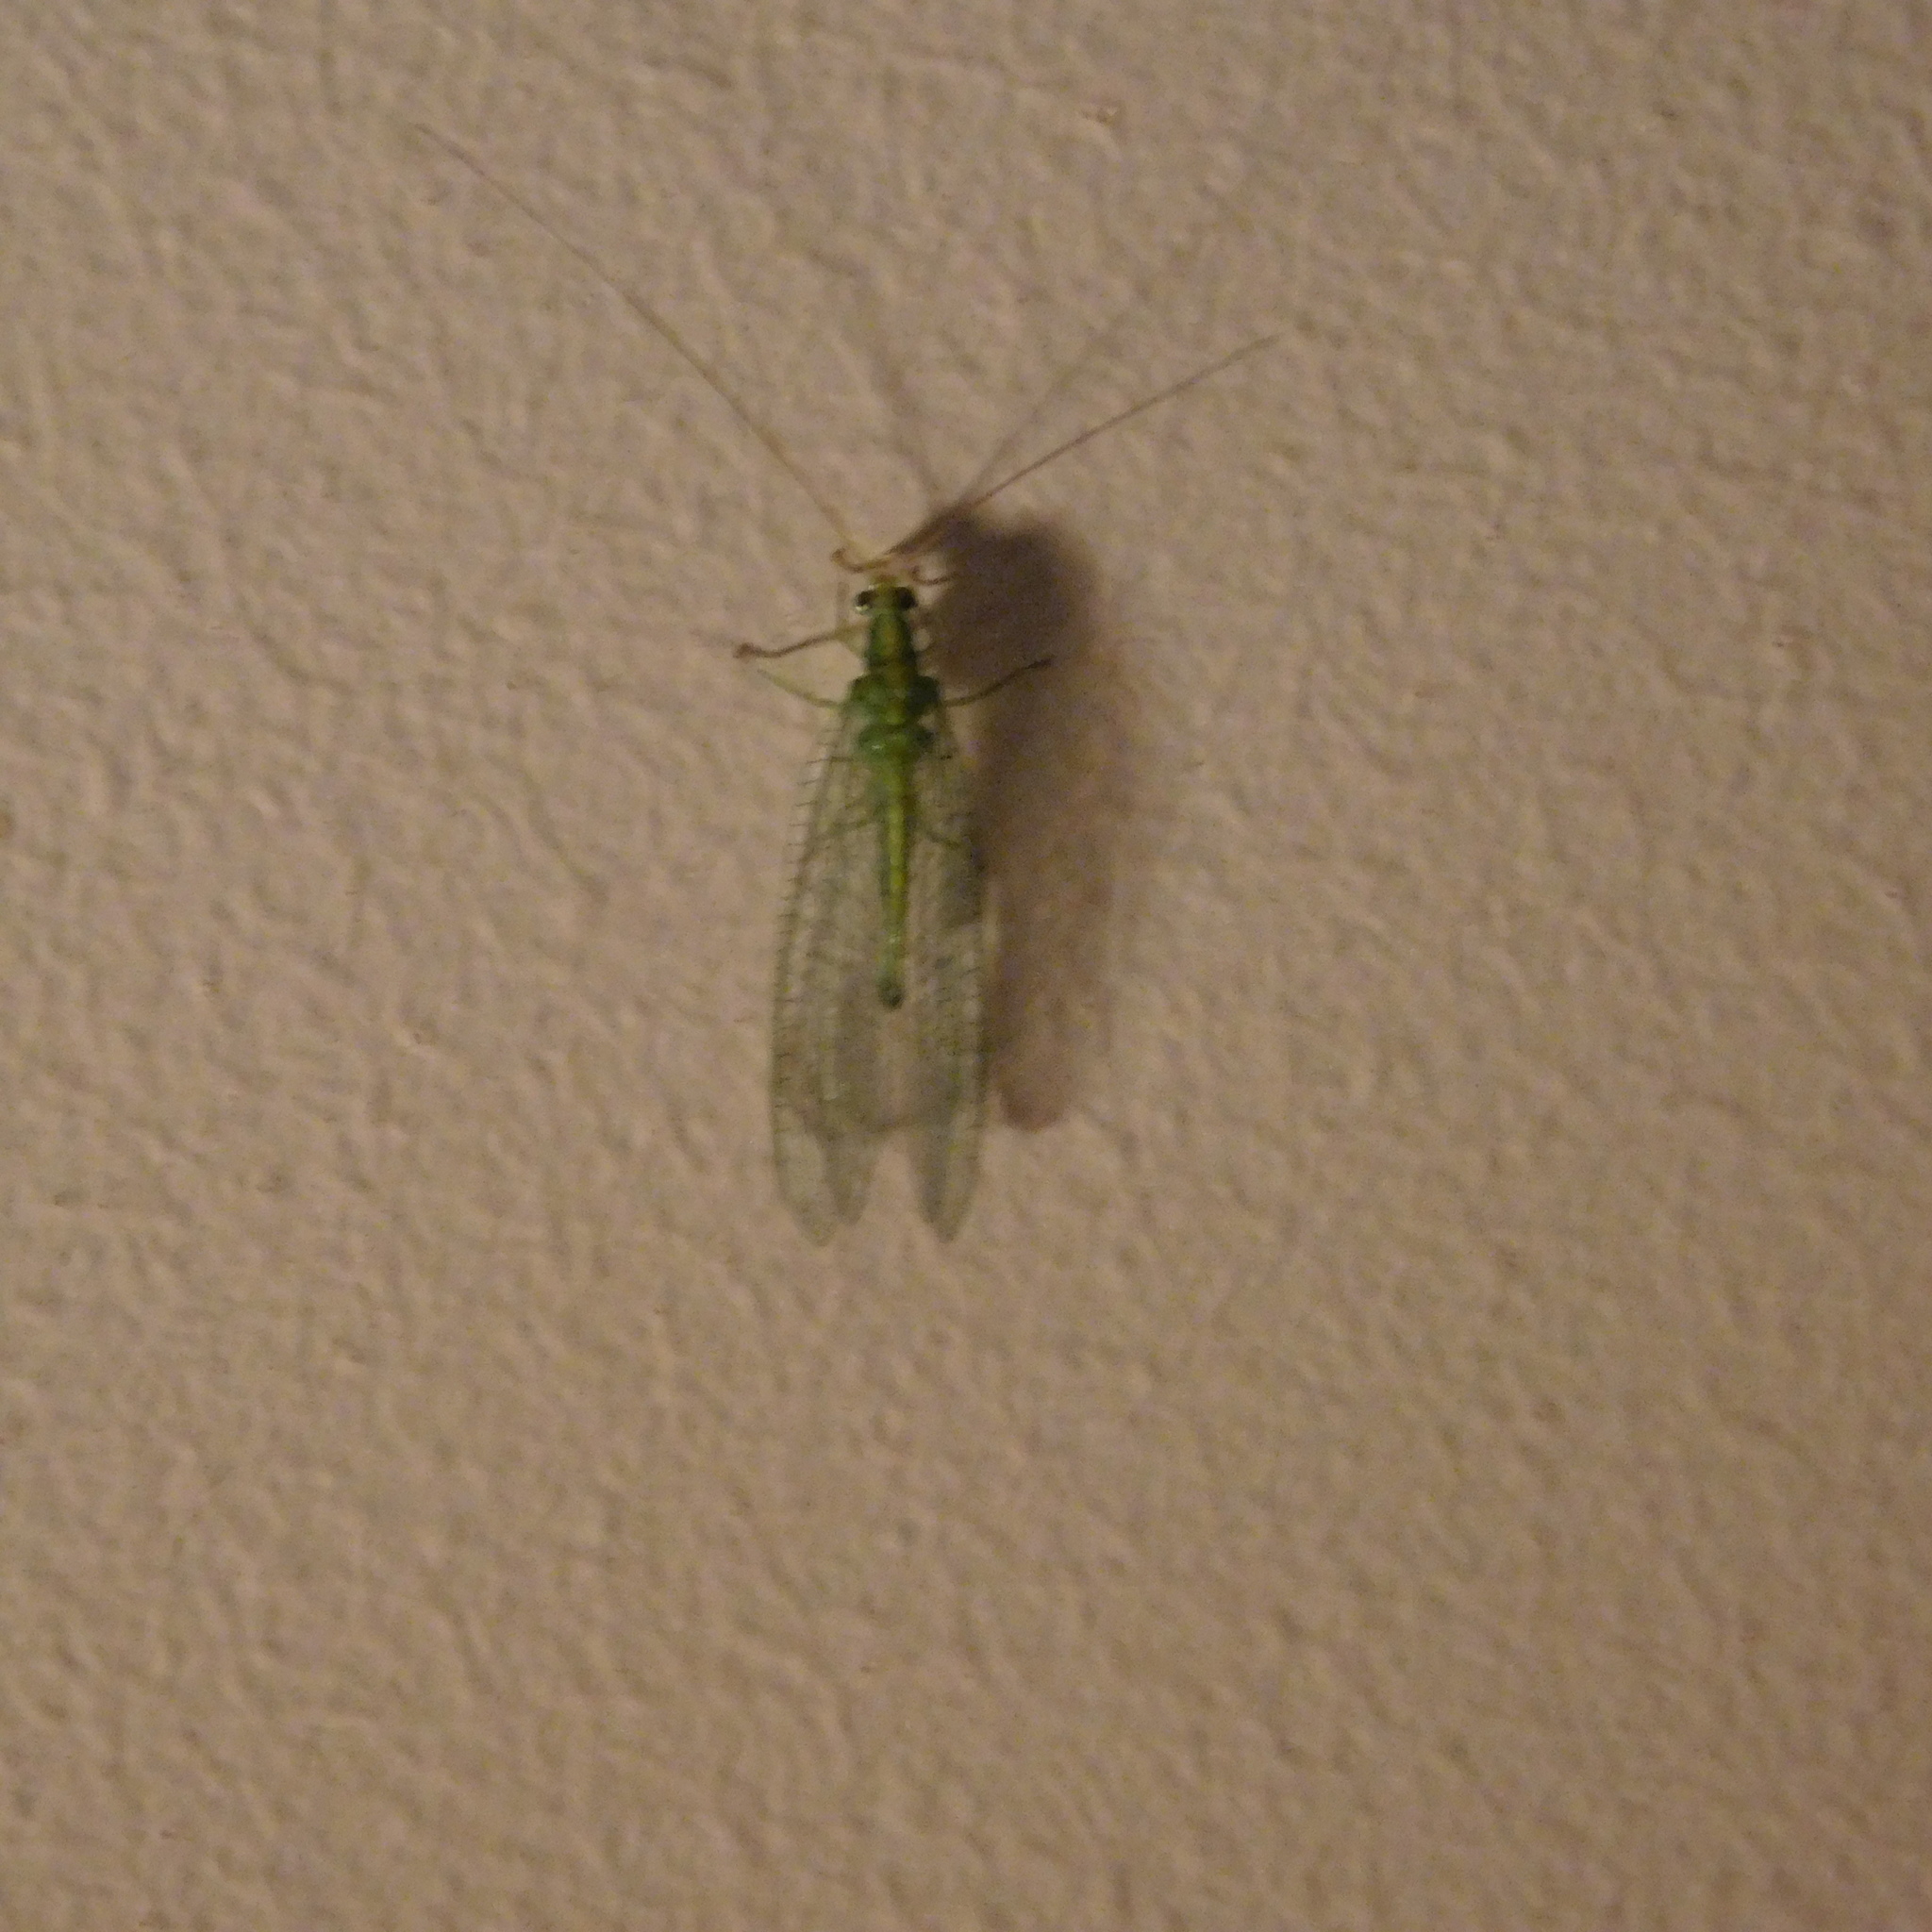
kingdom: Animalia
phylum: Arthropoda
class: Insecta
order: Neuroptera
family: Chrysopidae
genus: Mallada
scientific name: Mallada basalis
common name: Green lacewing
